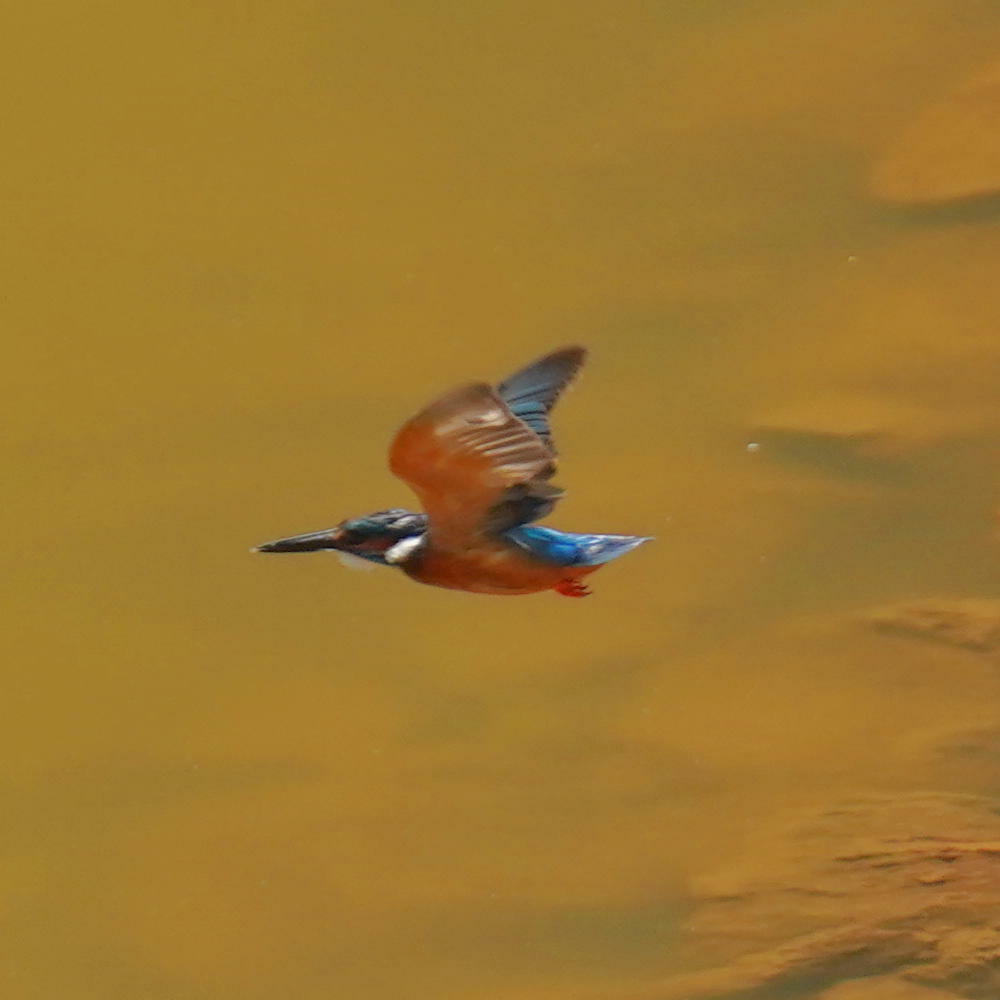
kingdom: Animalia
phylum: Chordata
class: Aves
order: Coraciiformes
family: Alcedinidae
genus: Alcedo
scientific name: Alcedo atthis
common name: Common kingfisher
